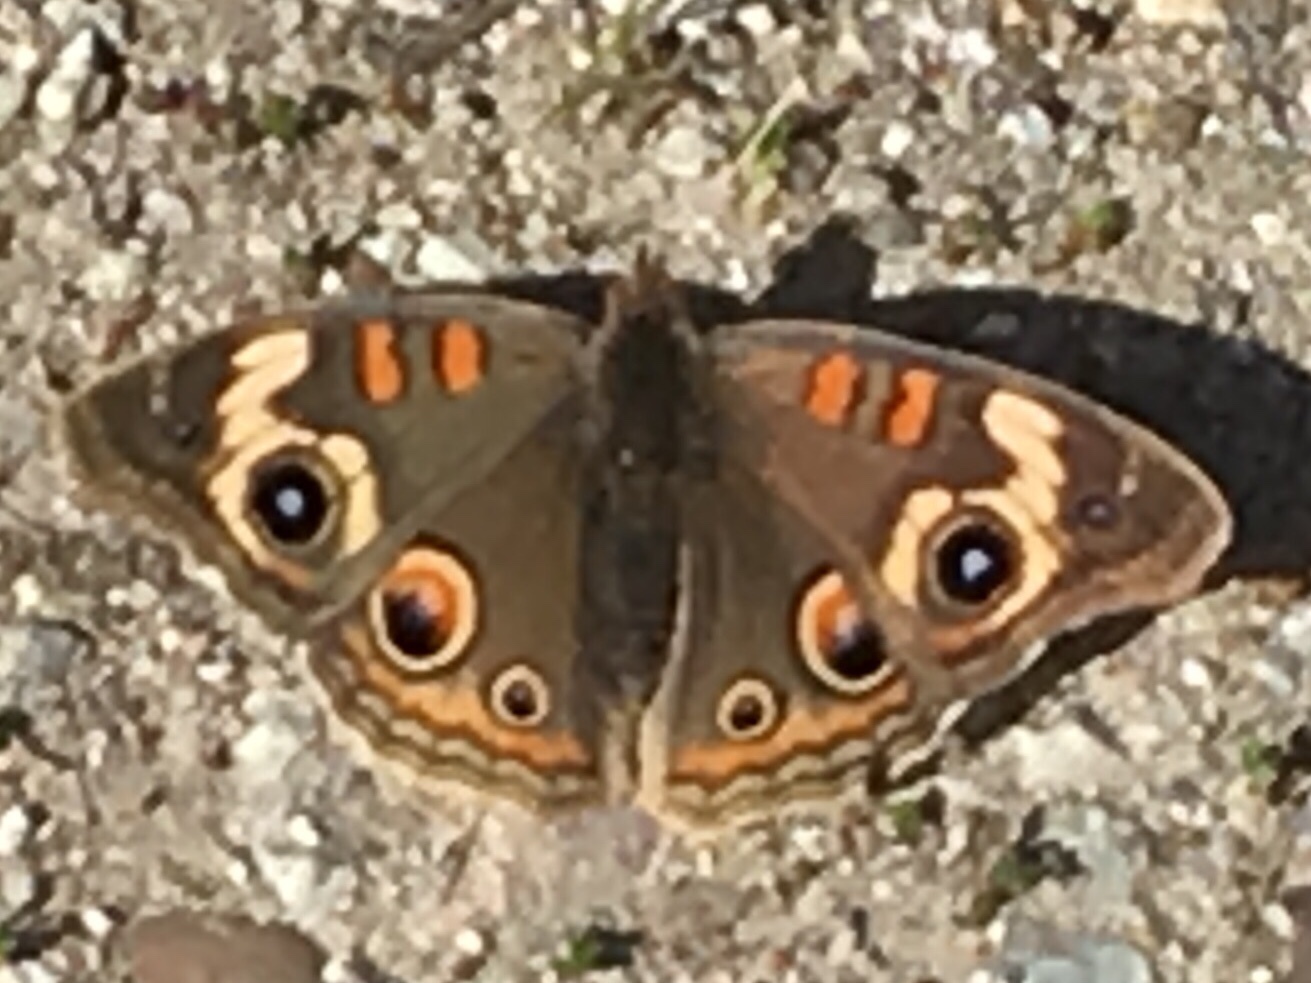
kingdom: Animalia
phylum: Arthropoda
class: Insecta
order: Lepidoptera
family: Nymphalidae
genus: Junonia
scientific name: Junonia grisea
